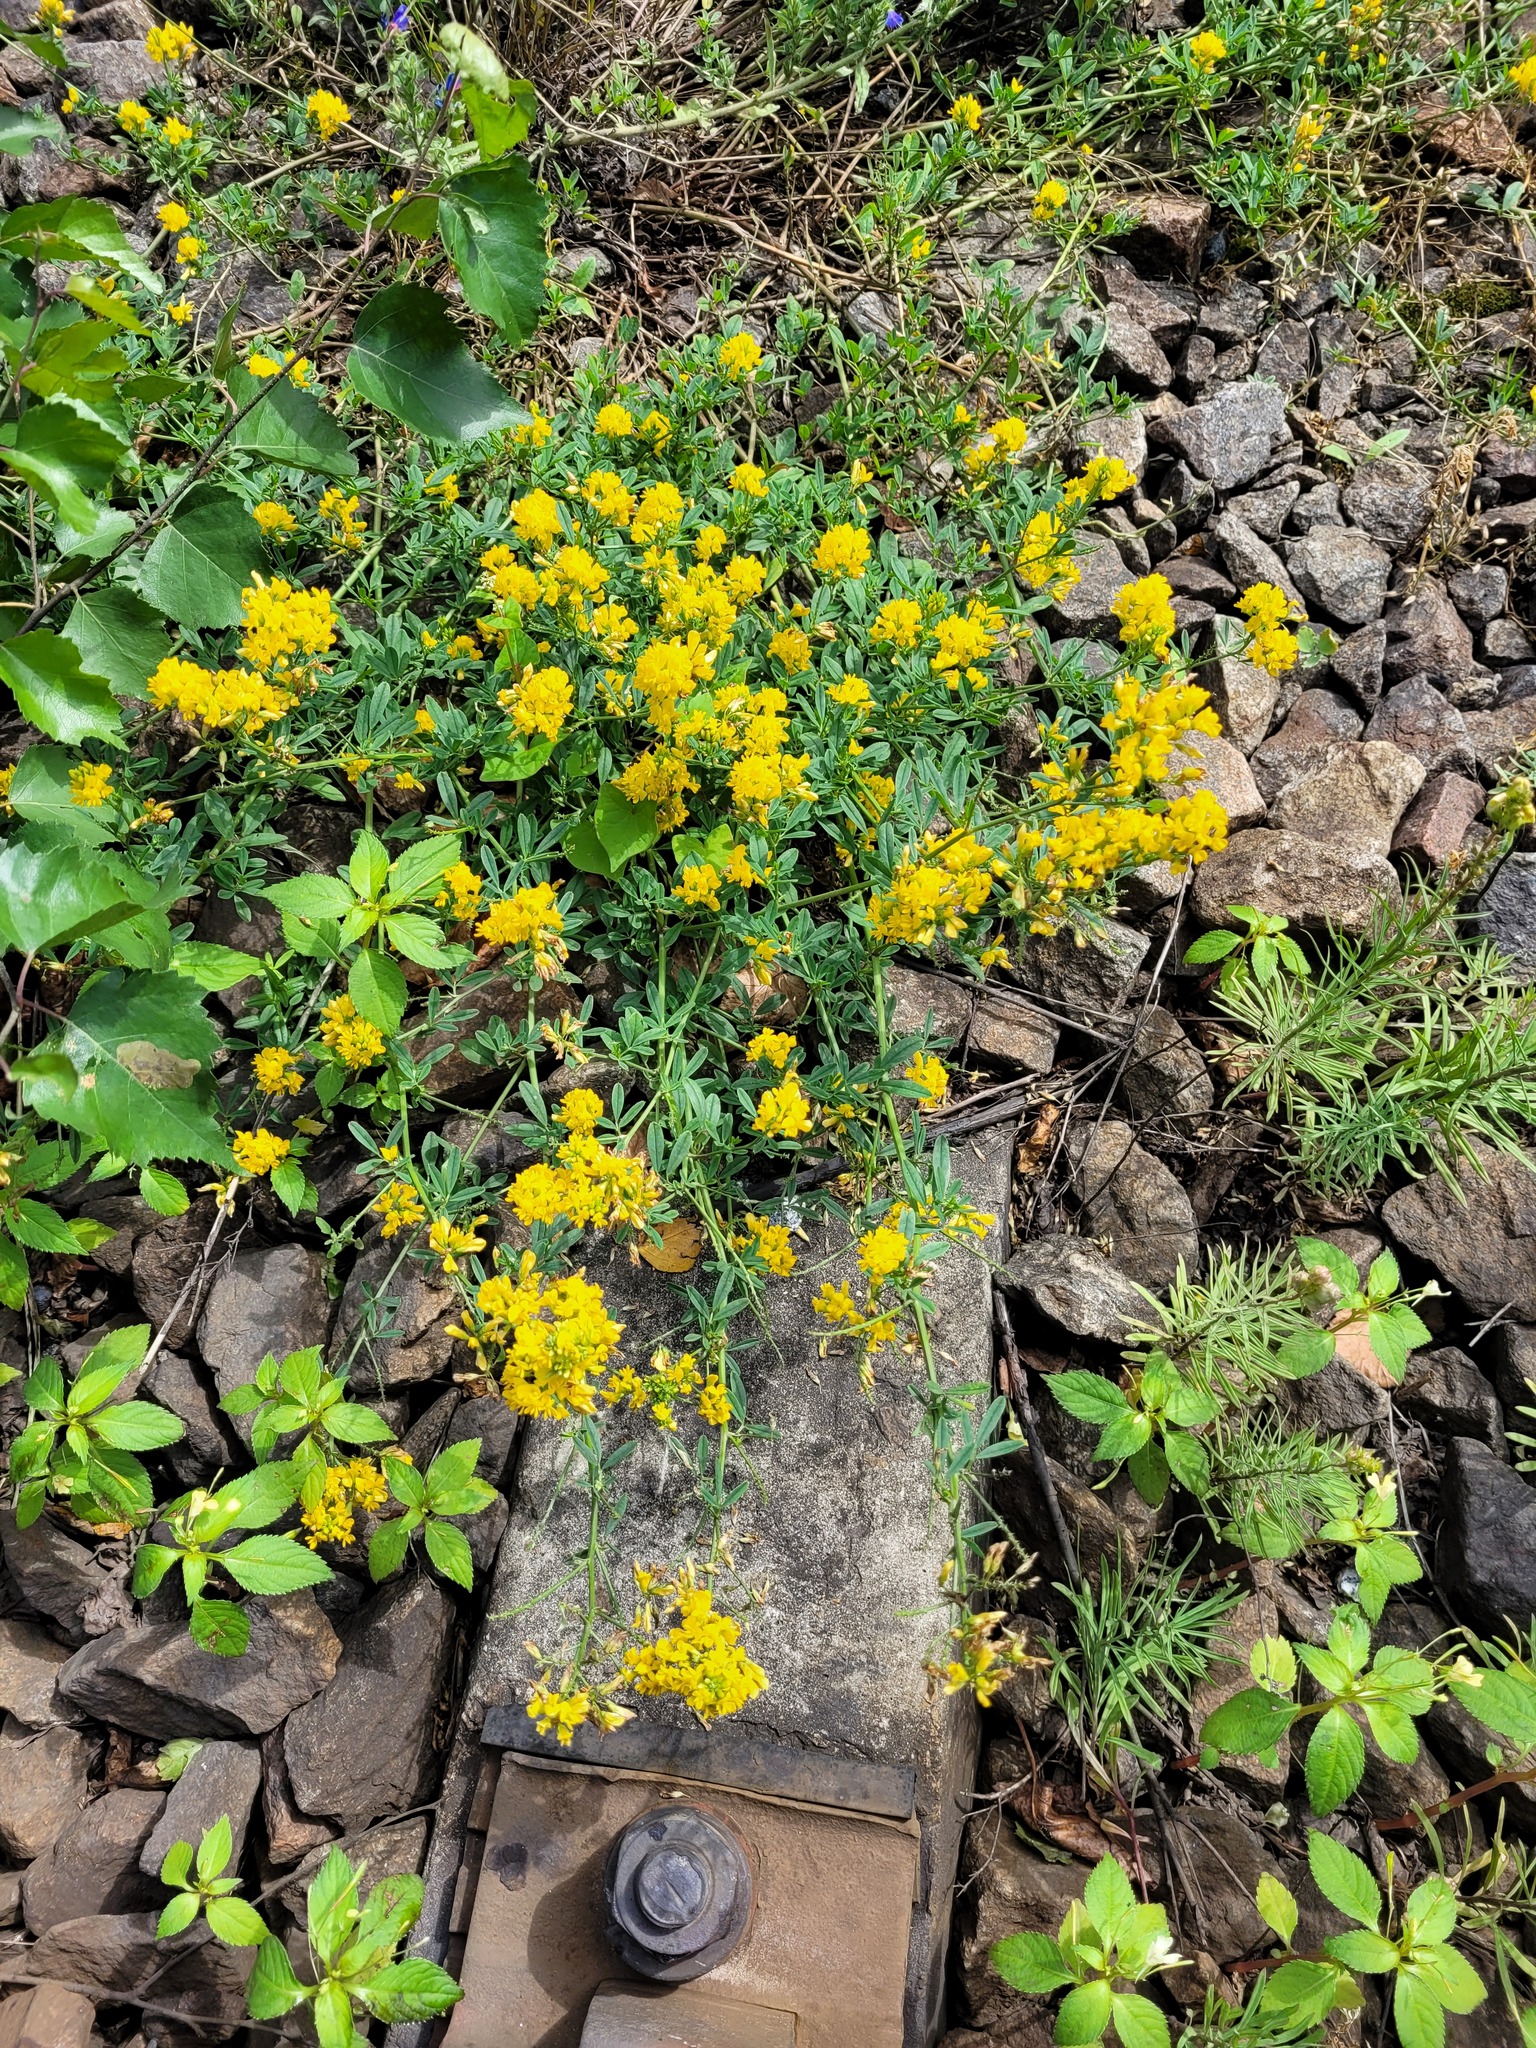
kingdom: Plantae
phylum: Tracheophyta
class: Magnoliopsida
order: Fabales
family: Fabaceae
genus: Medicago
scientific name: Medicago falcata
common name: Sickle medick
